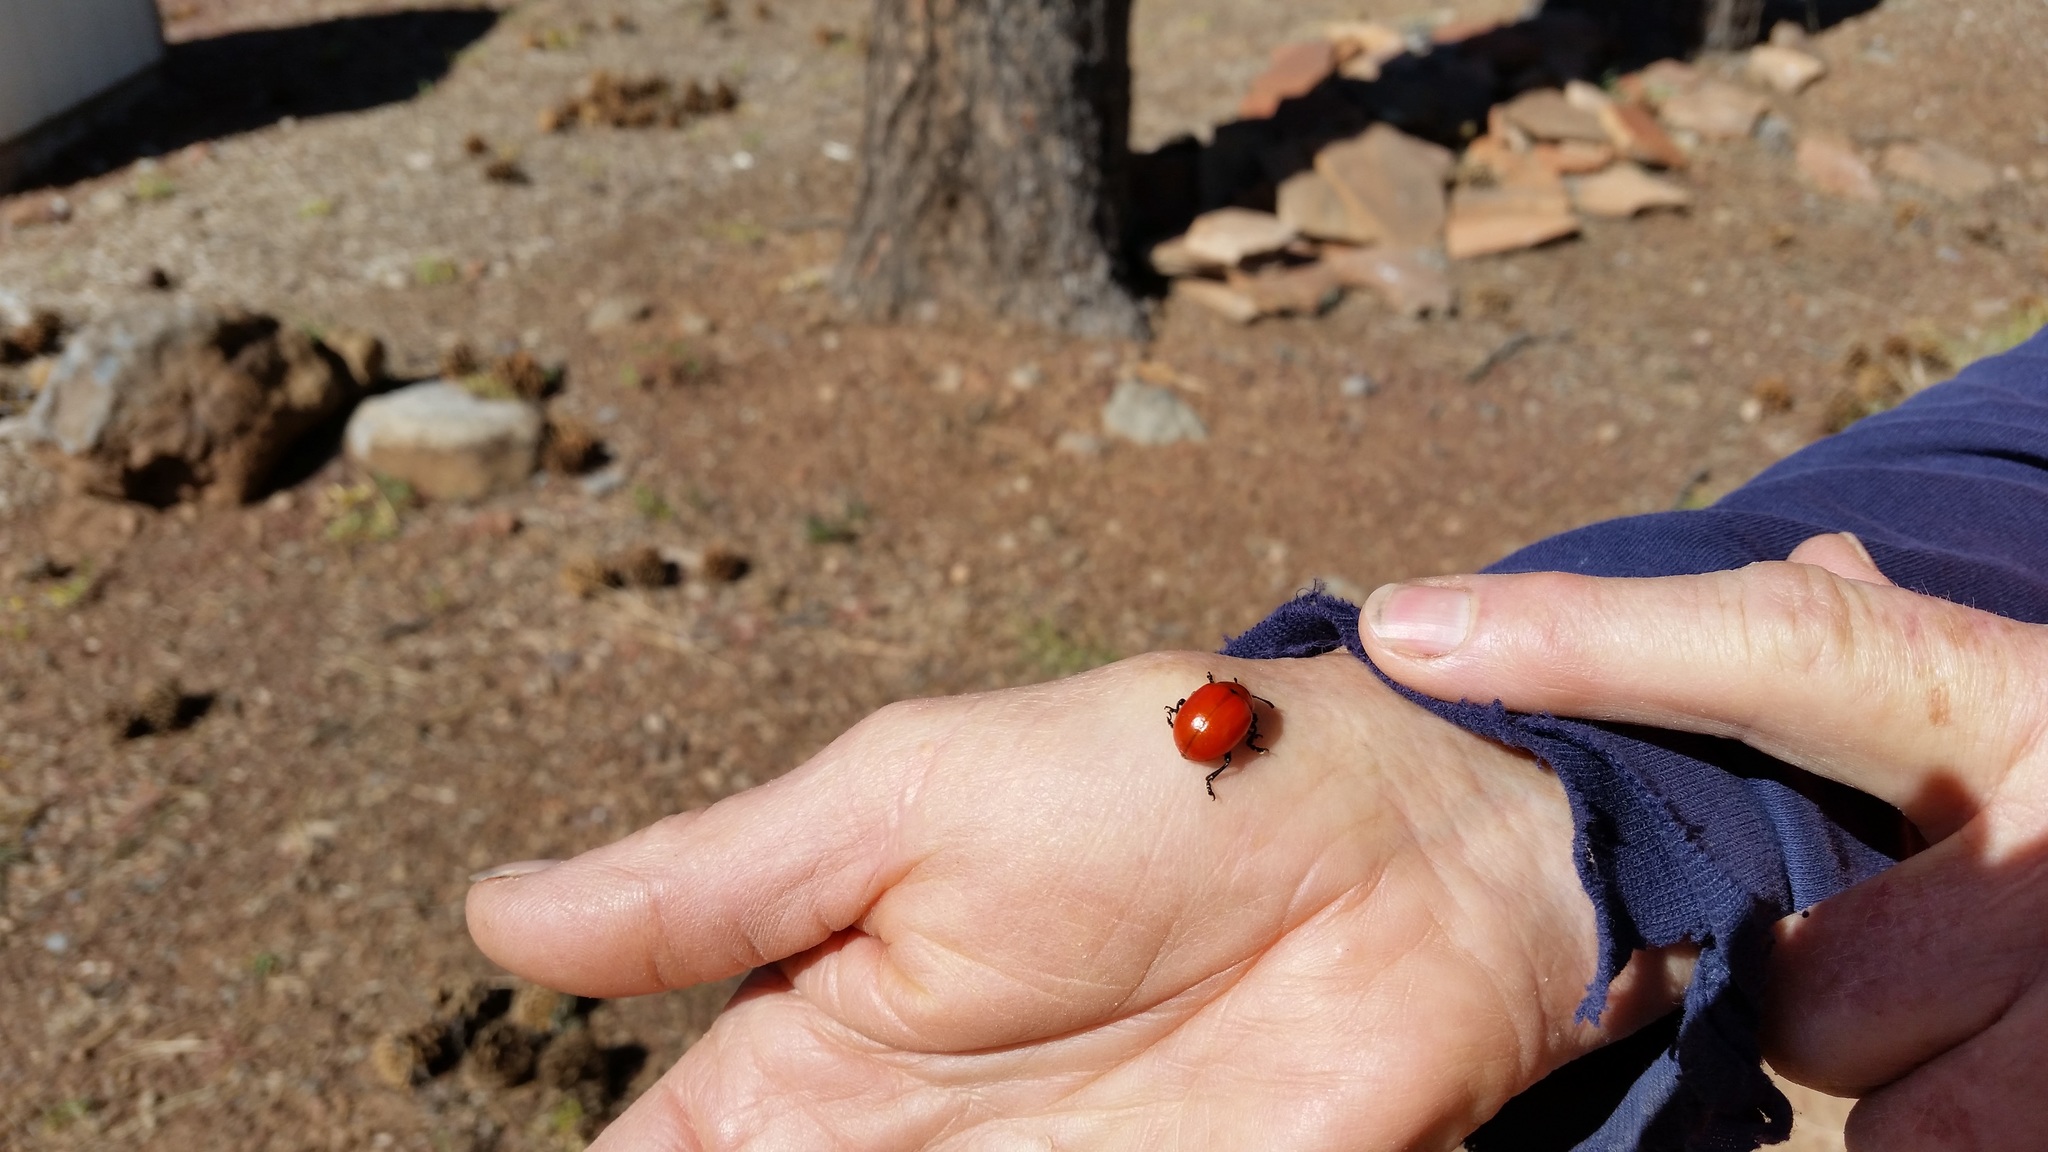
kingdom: Animalia
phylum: Arthropoda
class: Insecta
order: Coleoptera
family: Chrysomelidae
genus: Leptinotarsa
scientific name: Leptinotarsa rubiginosa
